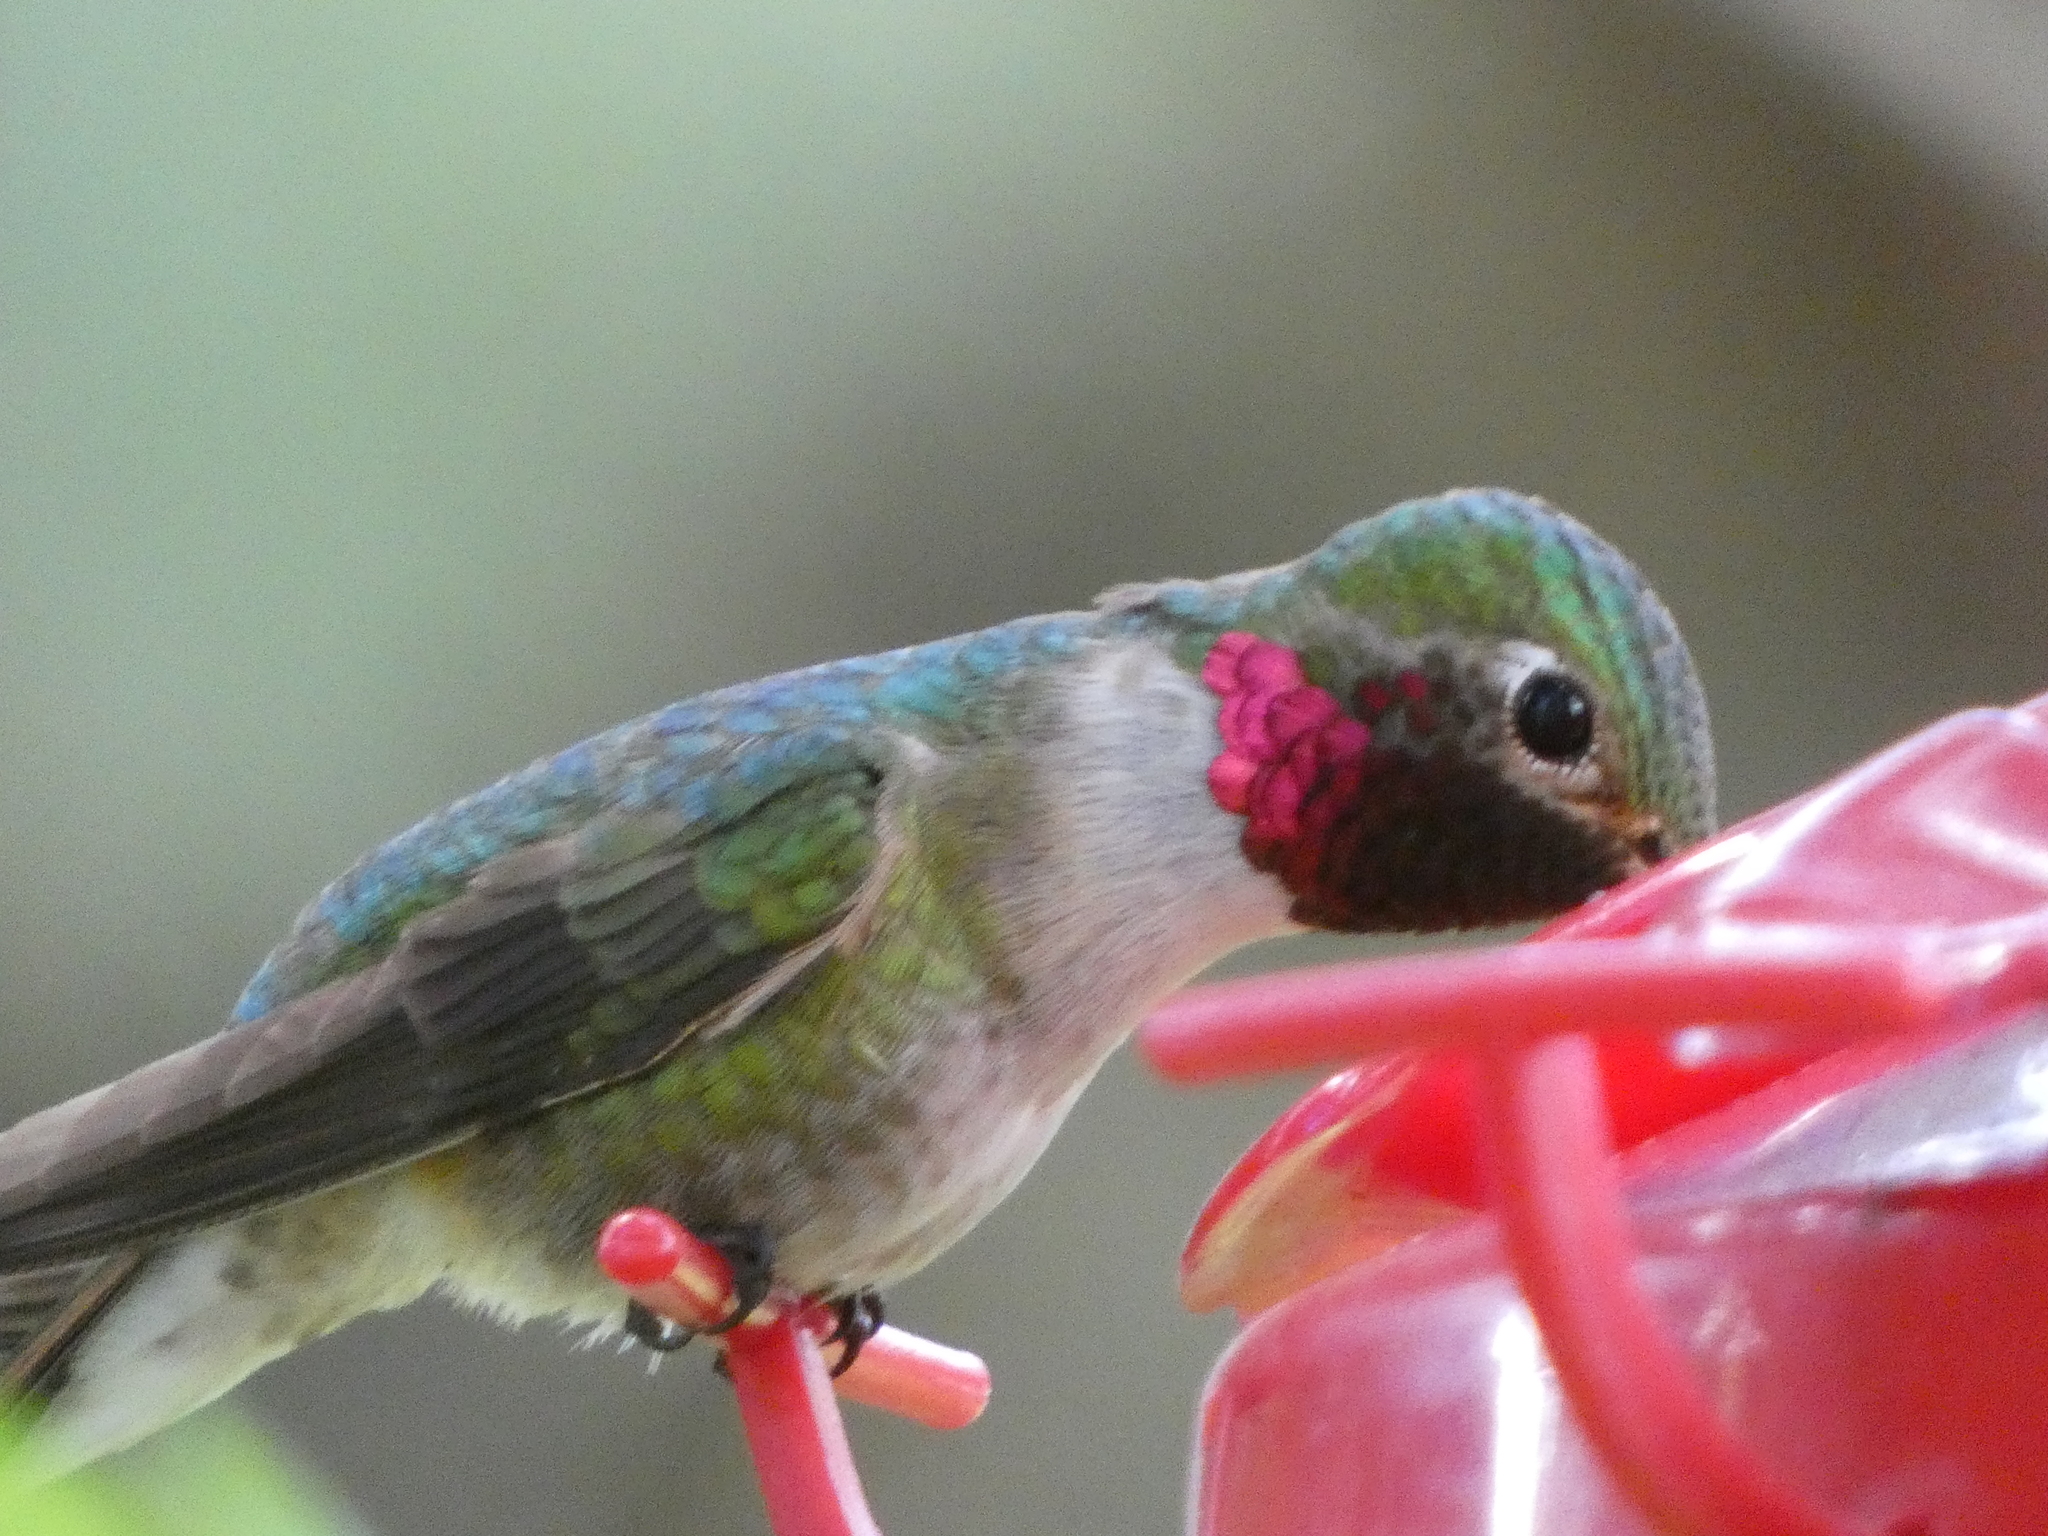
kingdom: Animalia
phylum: Chordata
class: Aves
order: Apodiformes
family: Trochilidae
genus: Selasphorus
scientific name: Selasphorus platycercus
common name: Broad-tailed hummingbird
